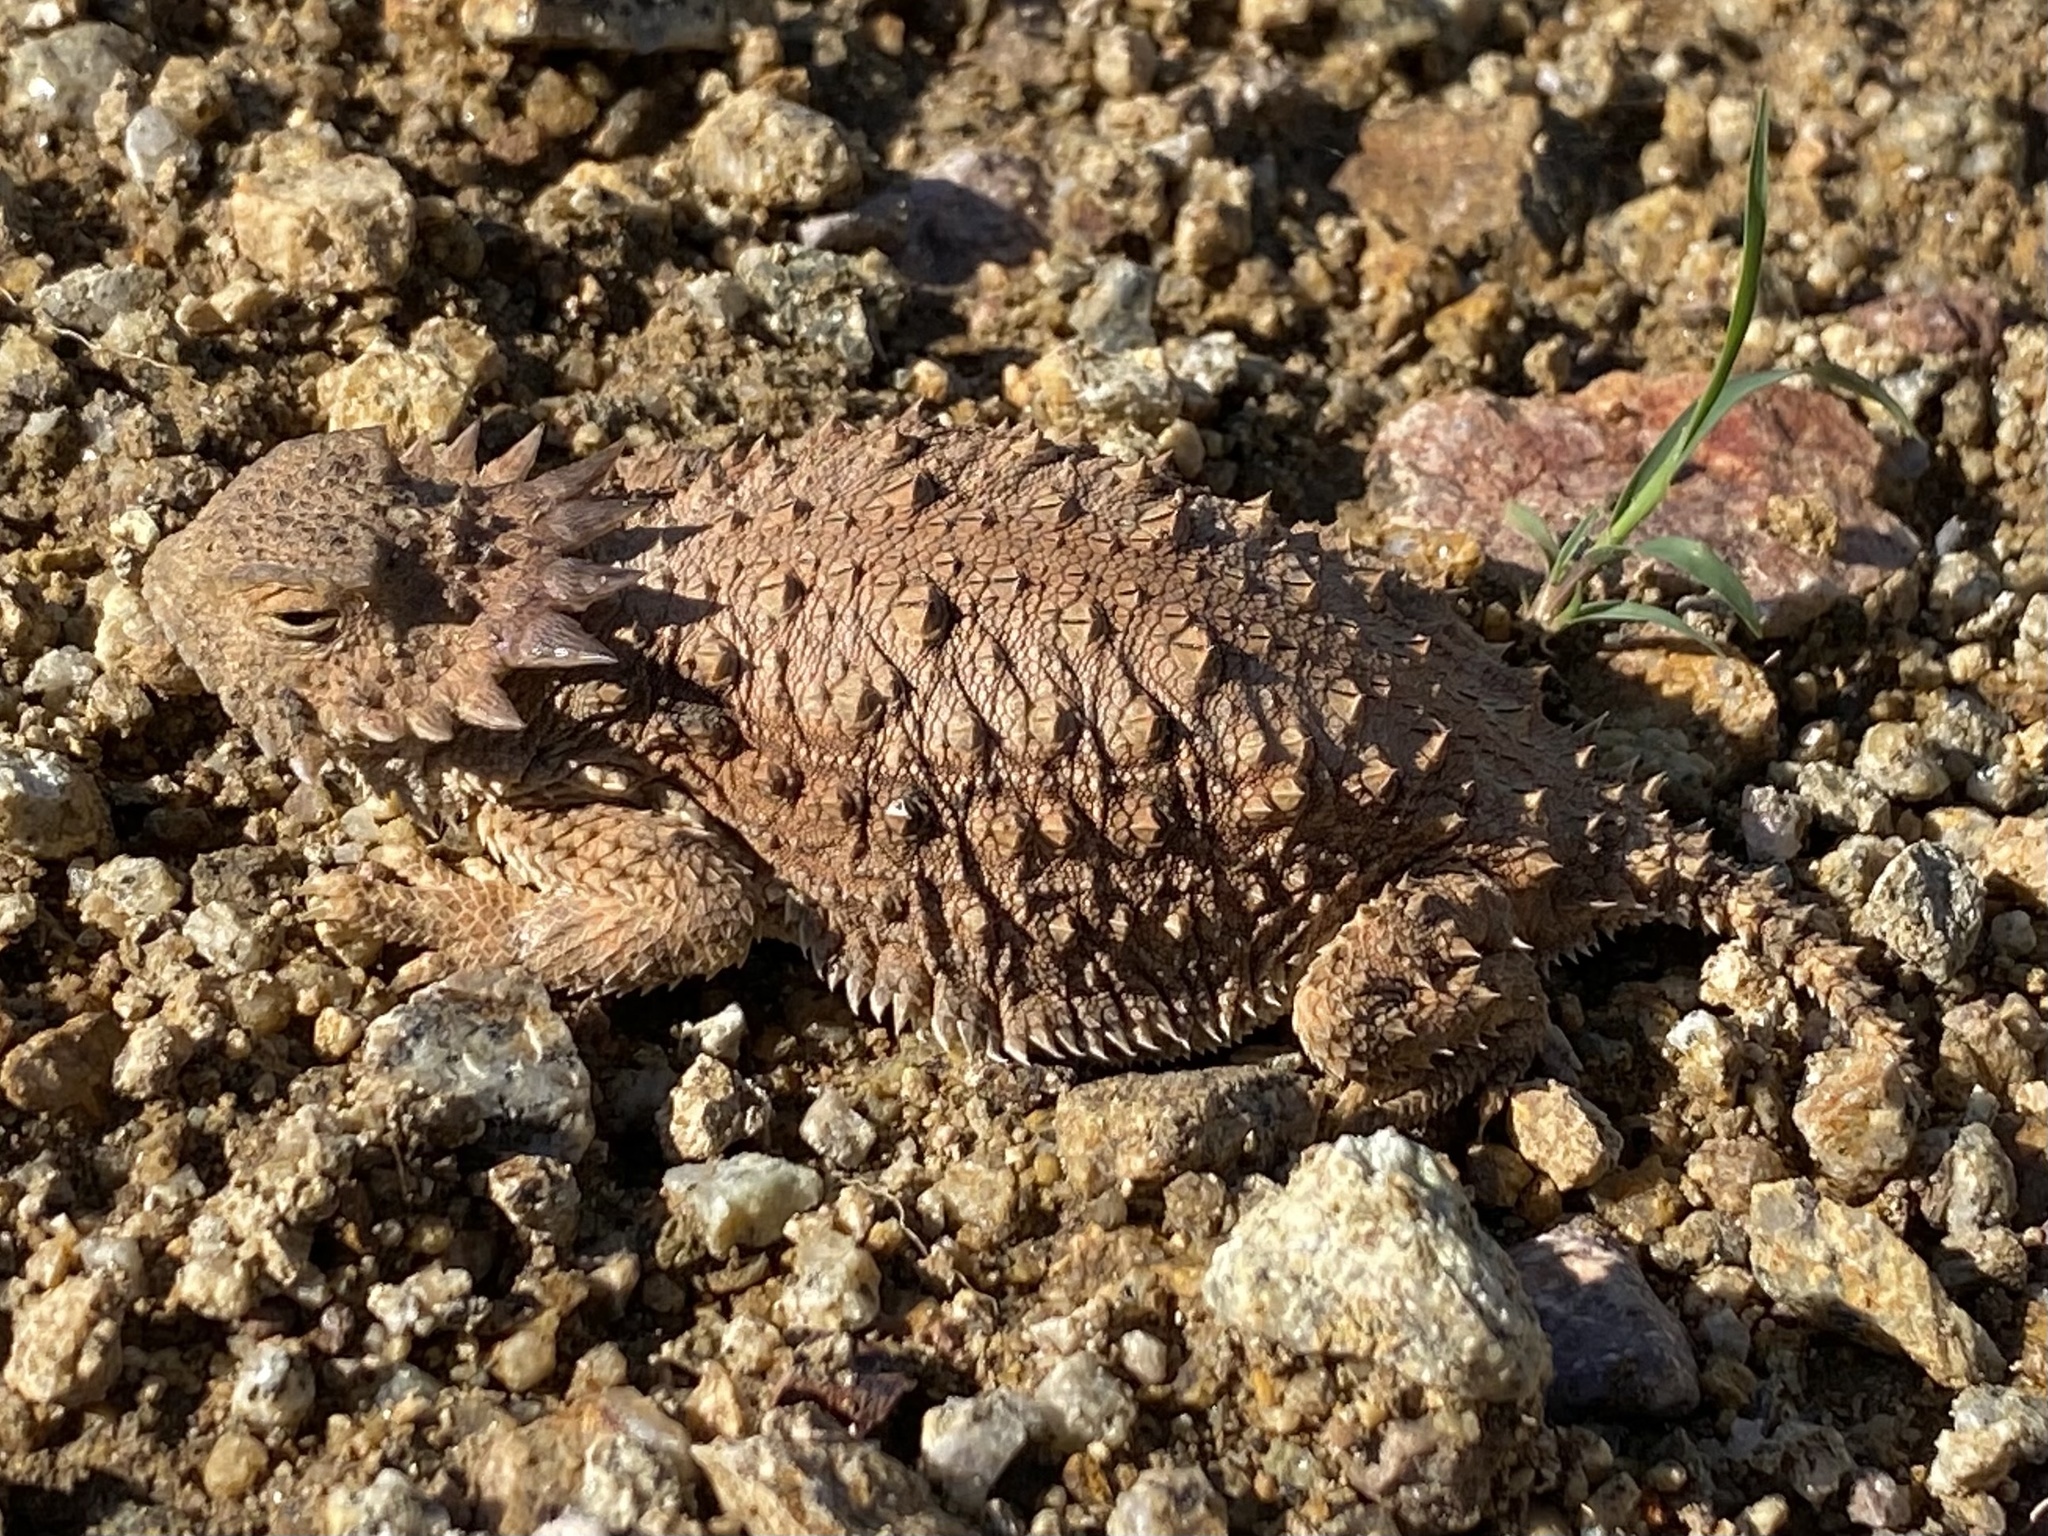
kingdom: Animalia
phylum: Chordata
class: Squamata
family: Phrynosomatidae
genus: Phrynosoma
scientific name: Phrynosoma solare
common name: Regal horned lizard
